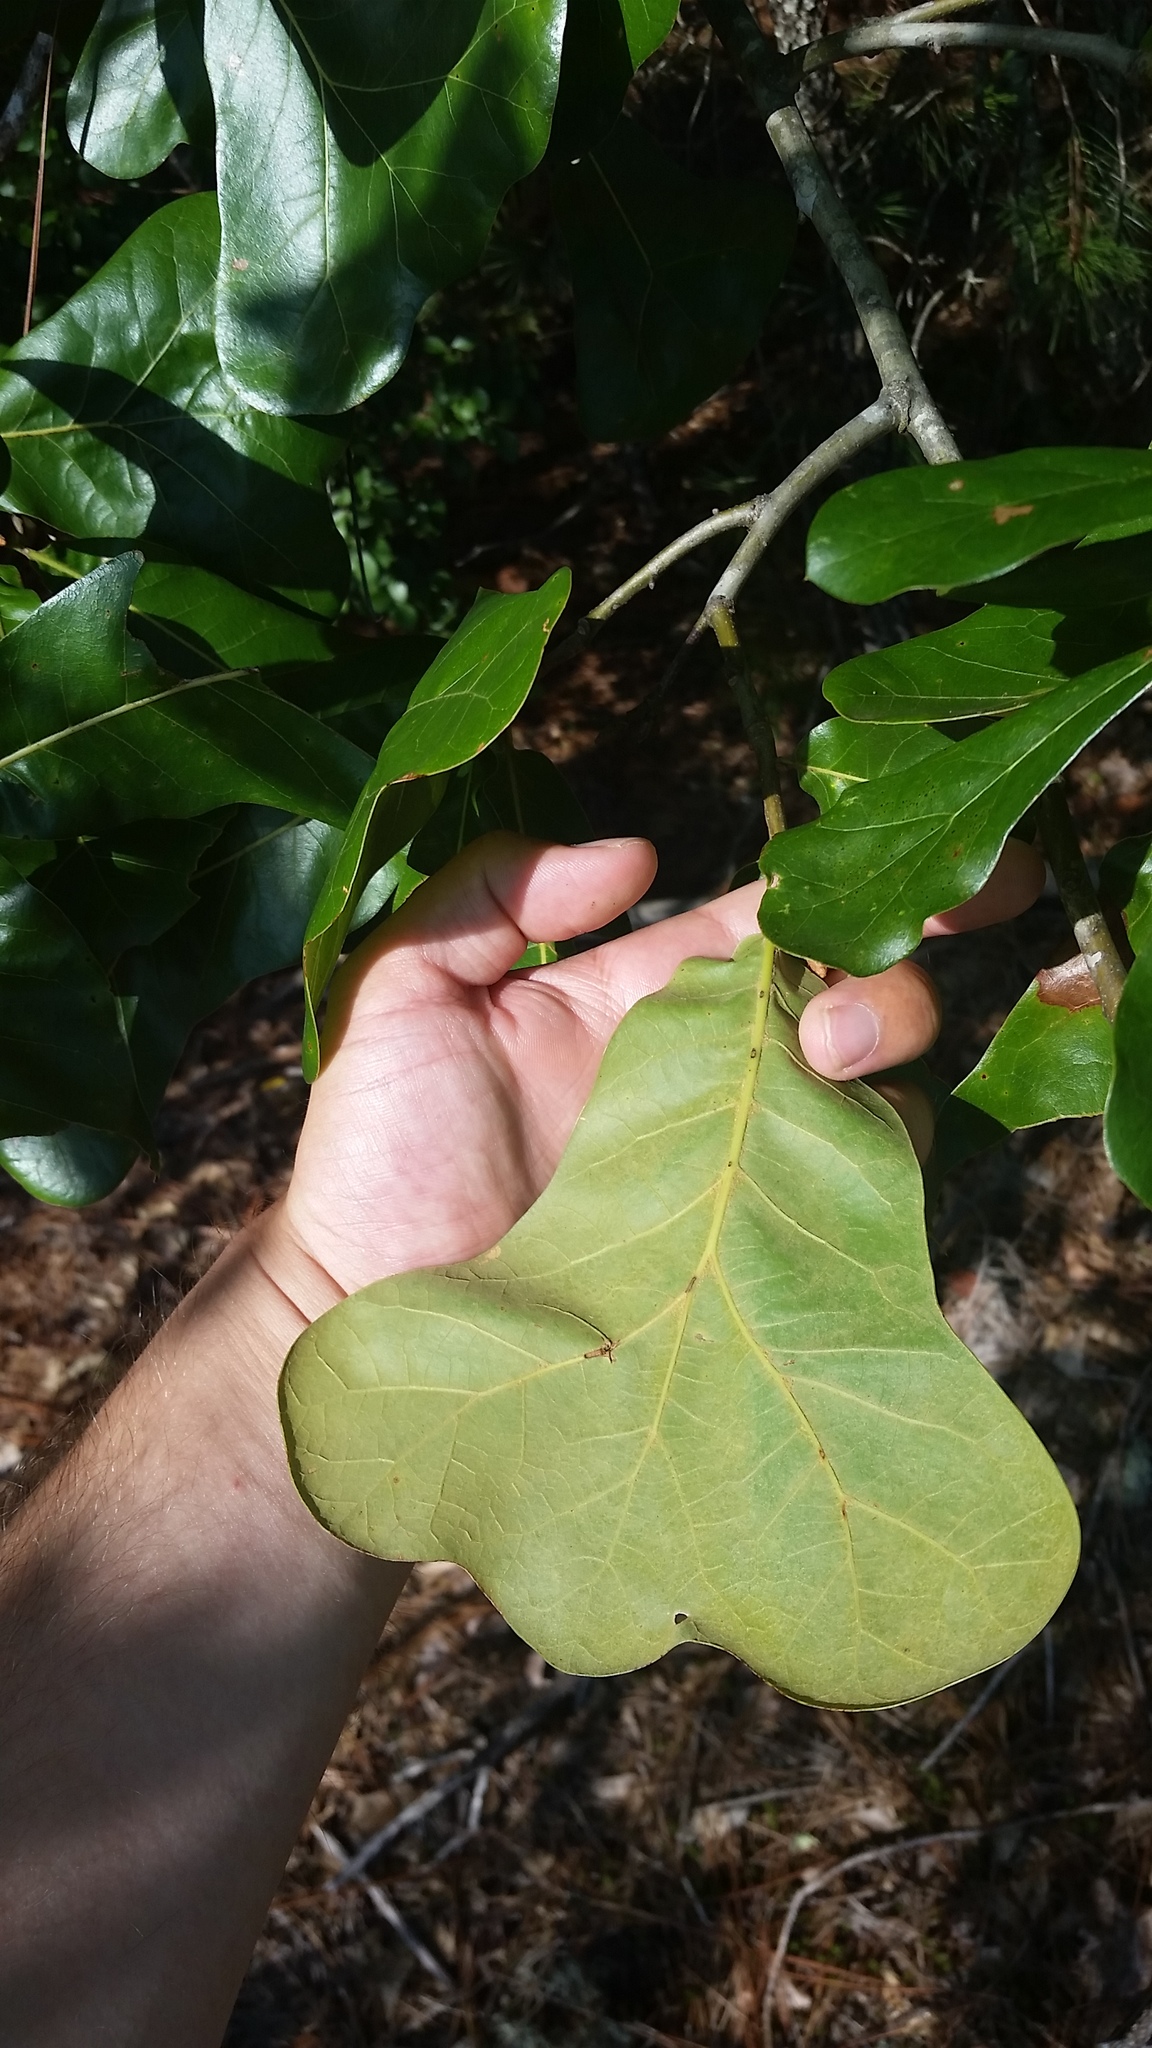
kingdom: Plantae
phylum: Tracheophyta
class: Magnoliopsida
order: Fagales
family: Fagaceae
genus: Quercus
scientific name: Quercus marilandica
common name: Blackjack oak
